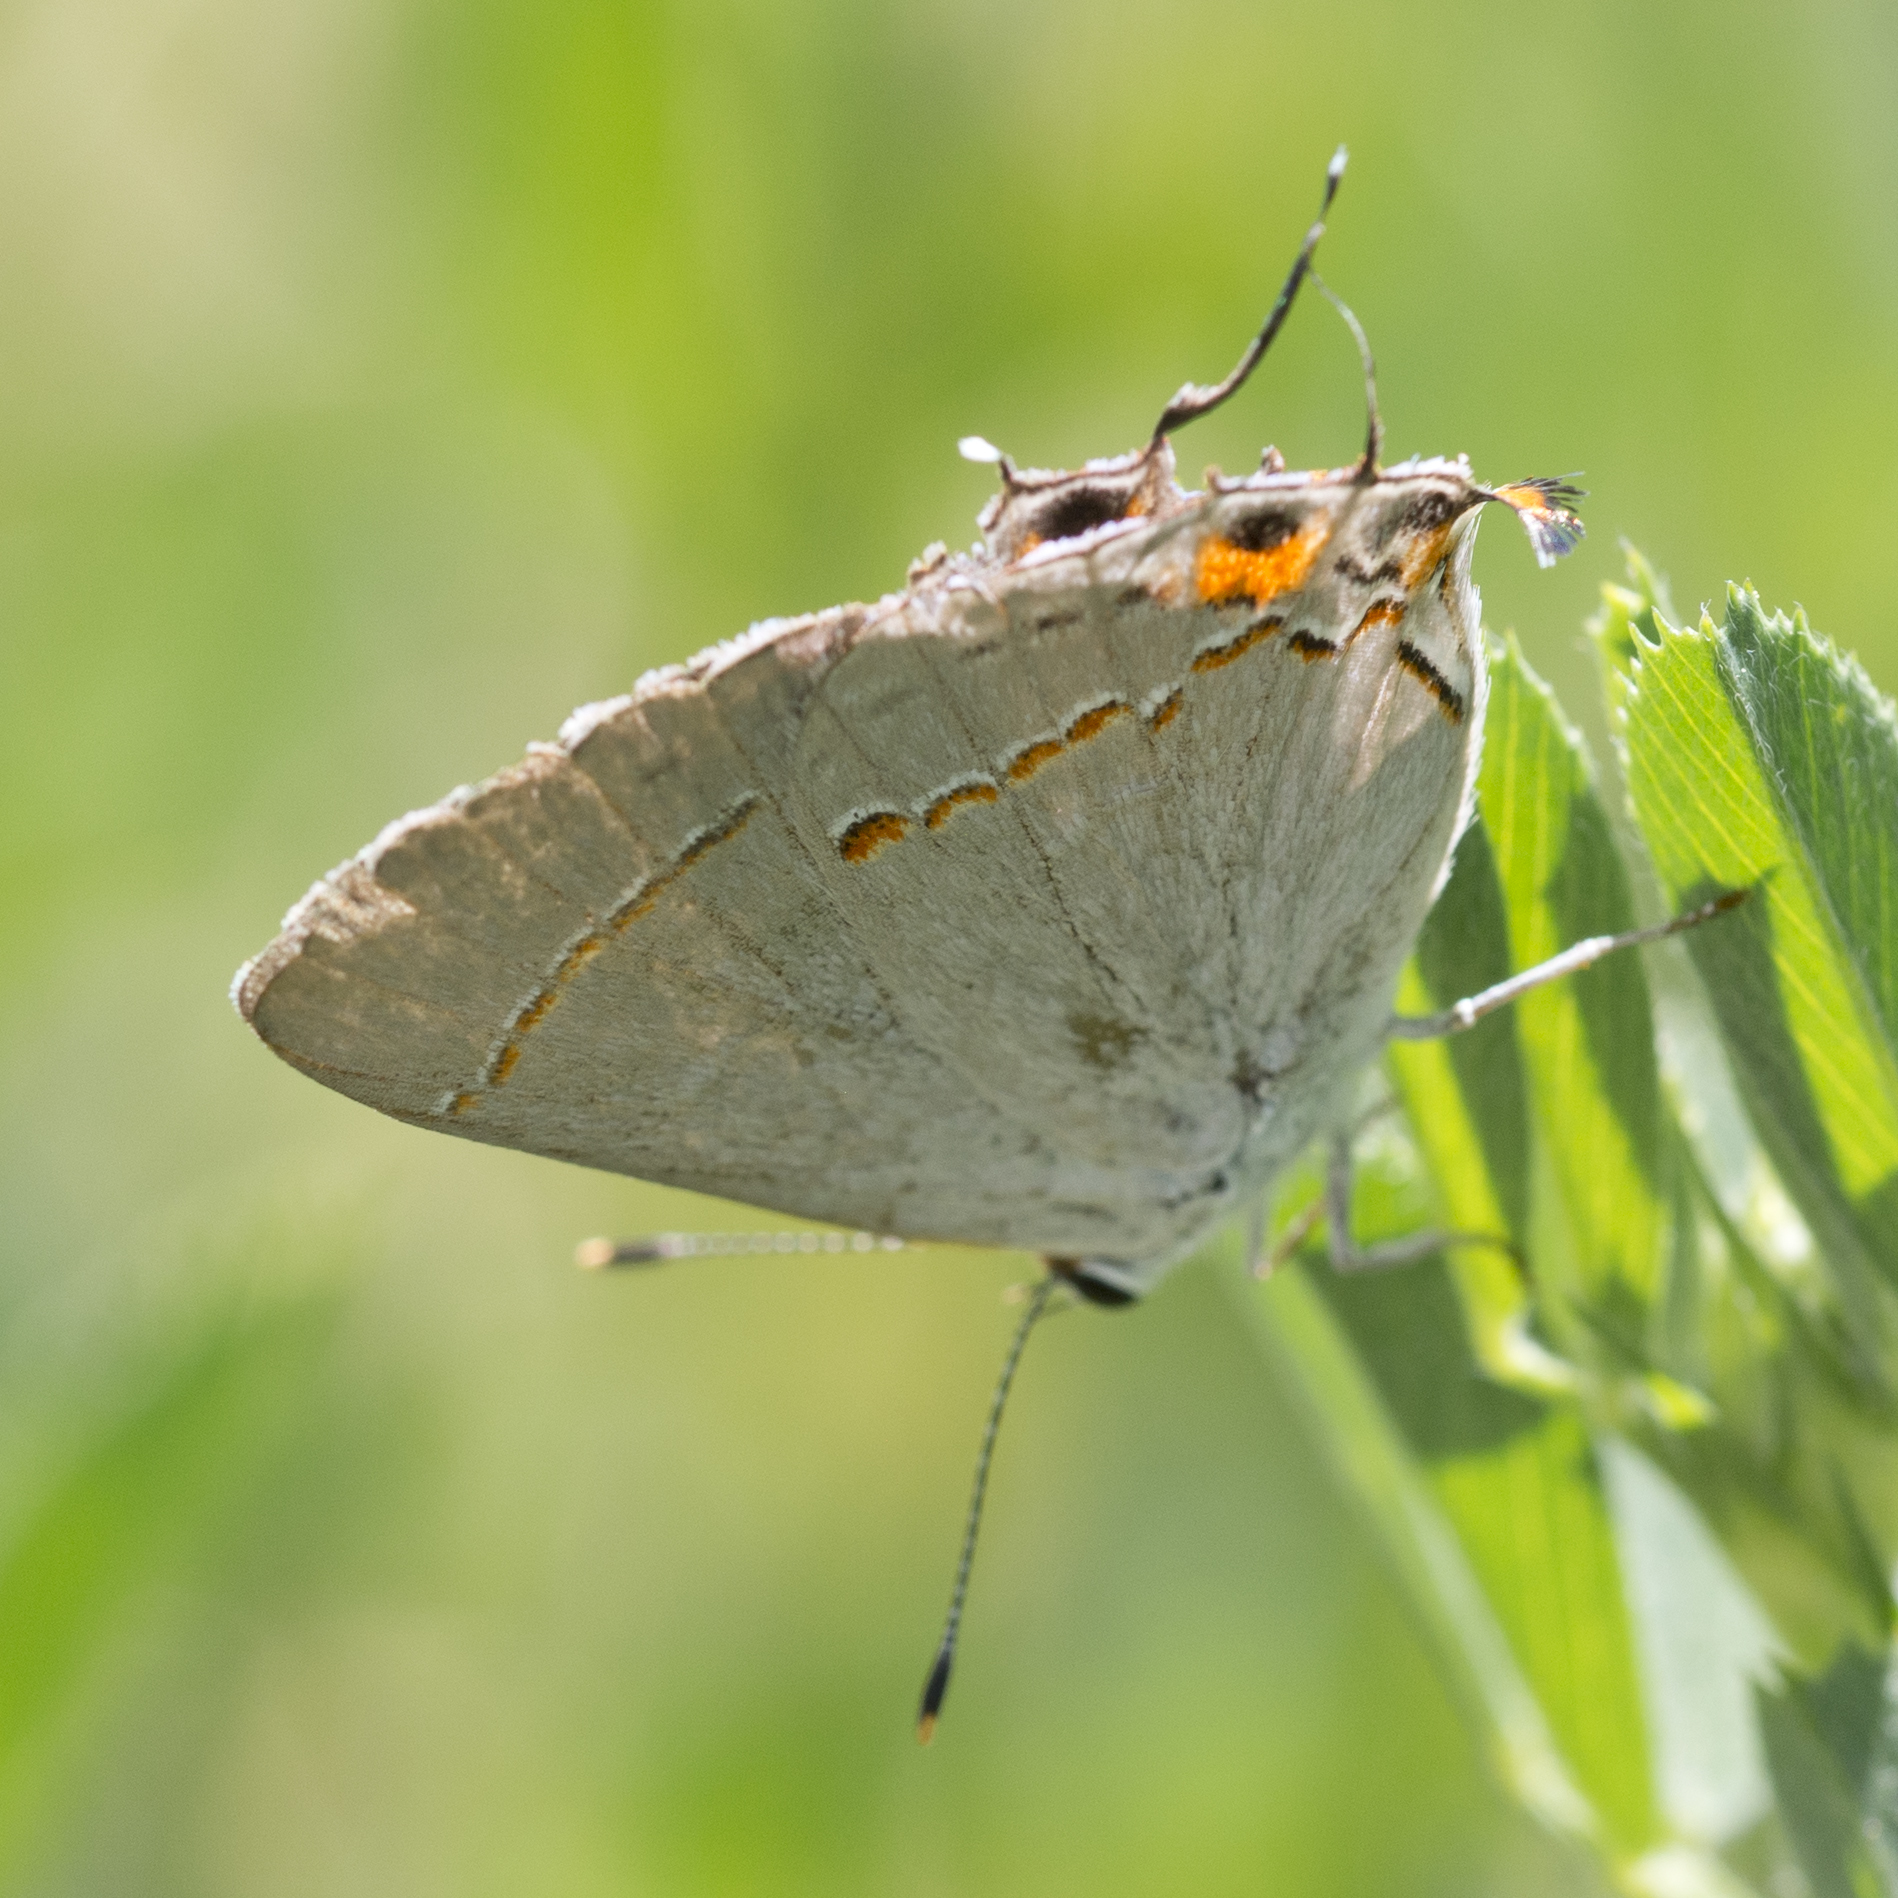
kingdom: Animalia
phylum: Arthropoda
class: Insecta
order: Lepidoptera
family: Lycaenidae
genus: Strymon
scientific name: Strymon melinus
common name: Gray hairstreak
